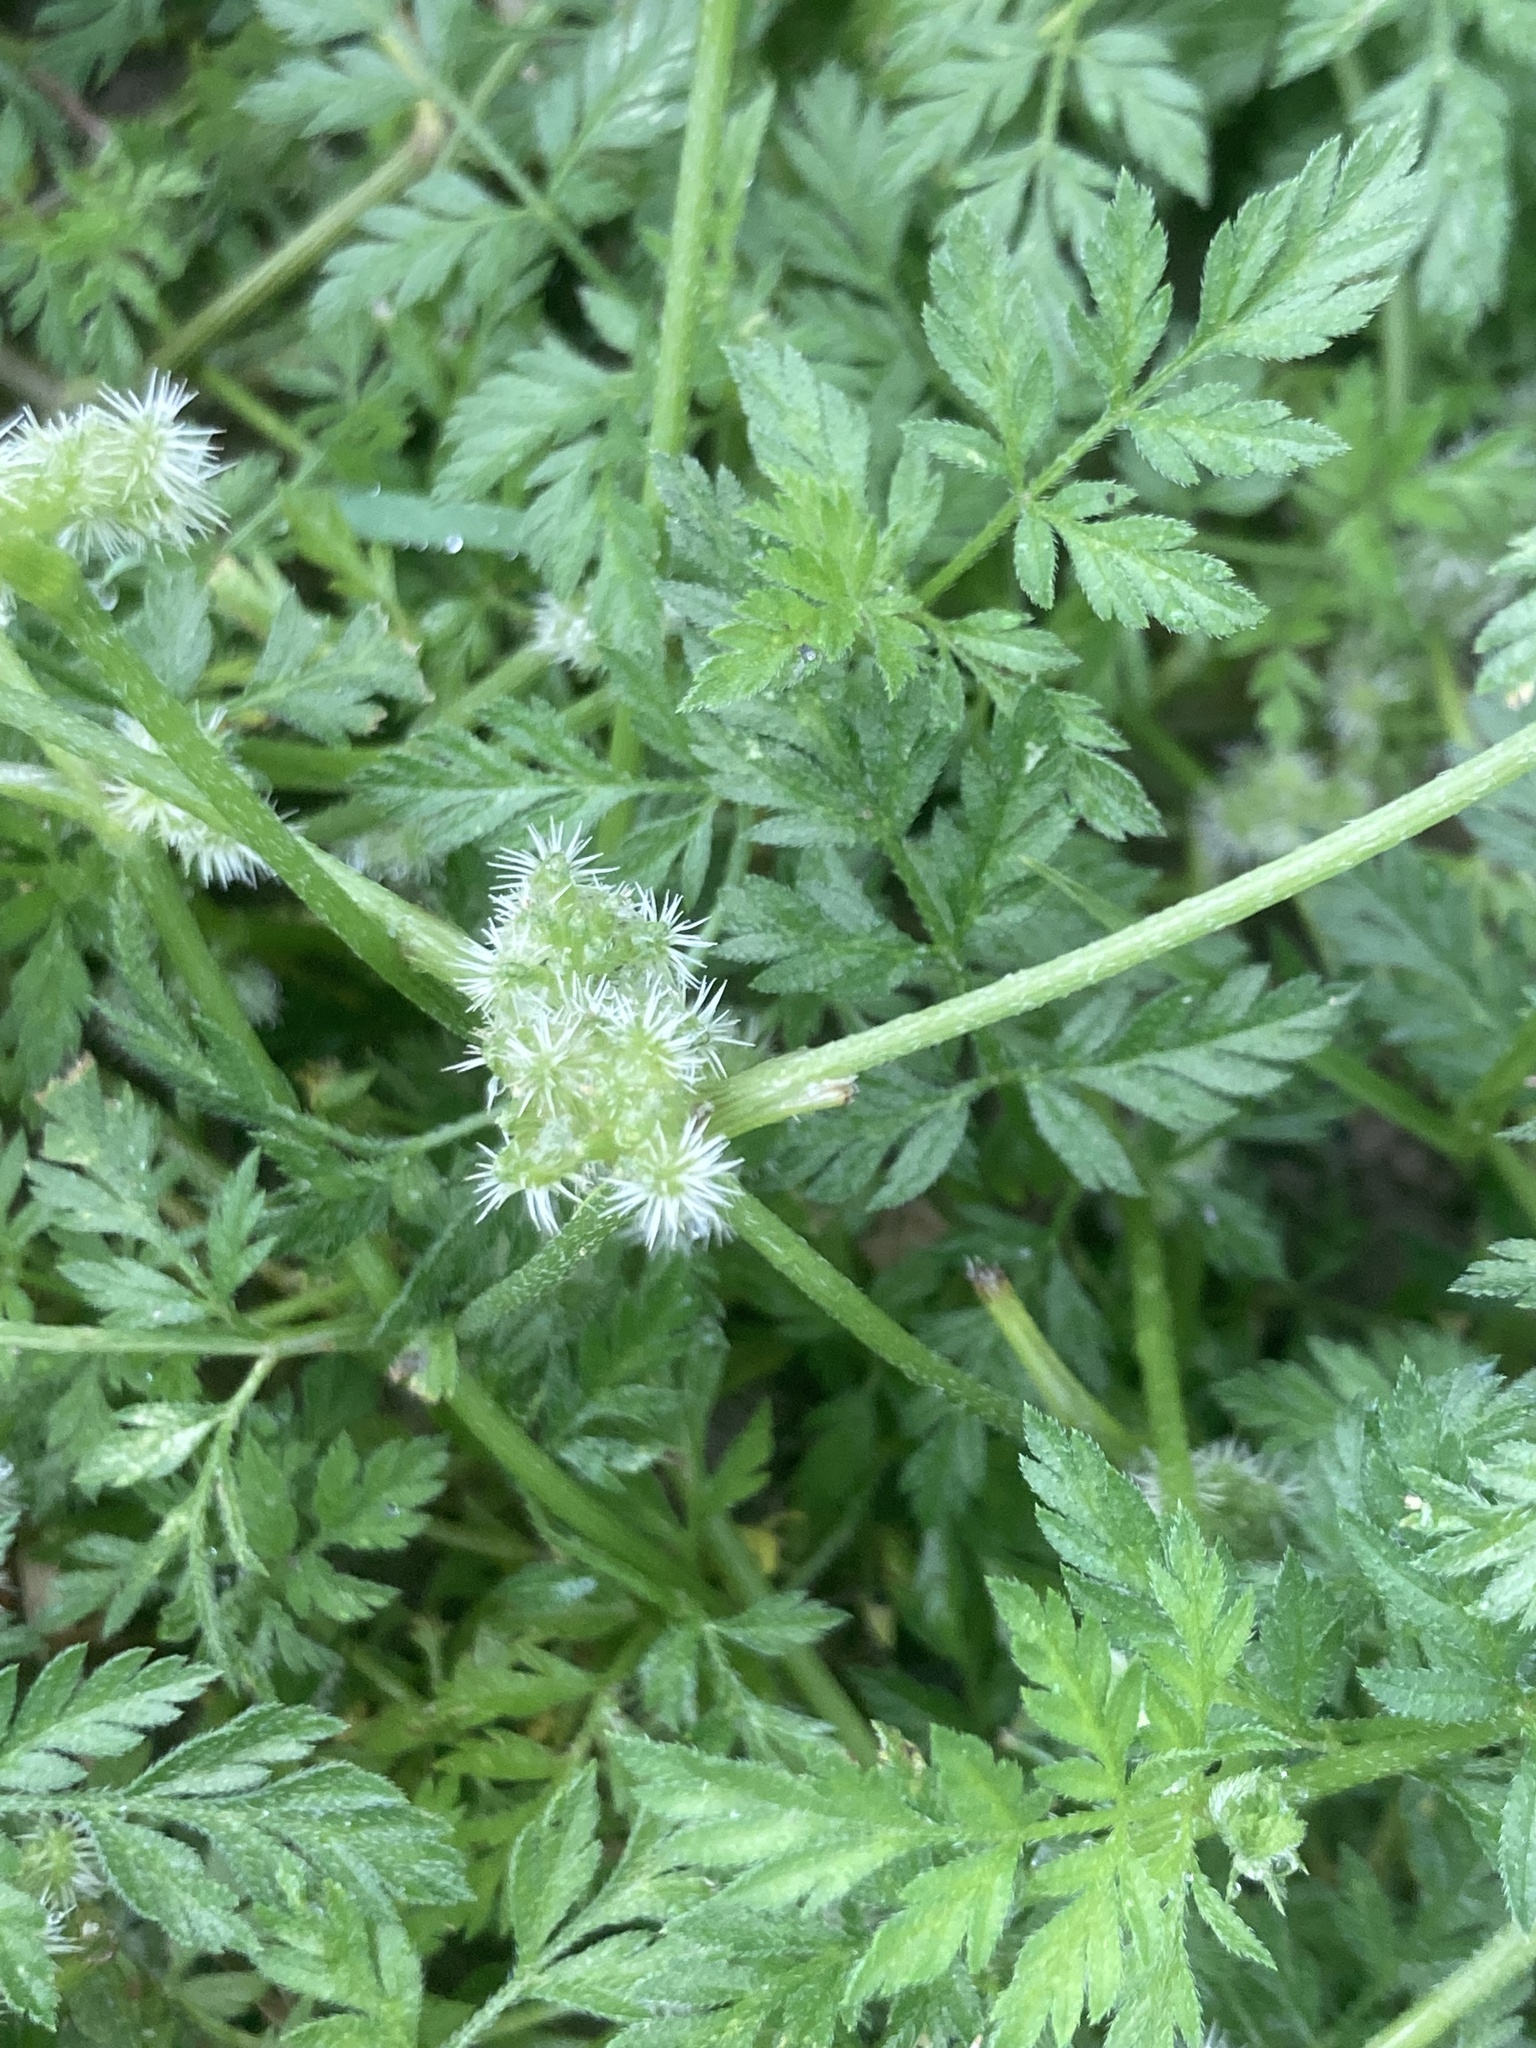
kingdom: Plantae
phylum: Tracheophyta
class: Magnoliopsida
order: Apiales
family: Apiaceae
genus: Torilis
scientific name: Torilis nodosa
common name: Knotted hedge-parsley
